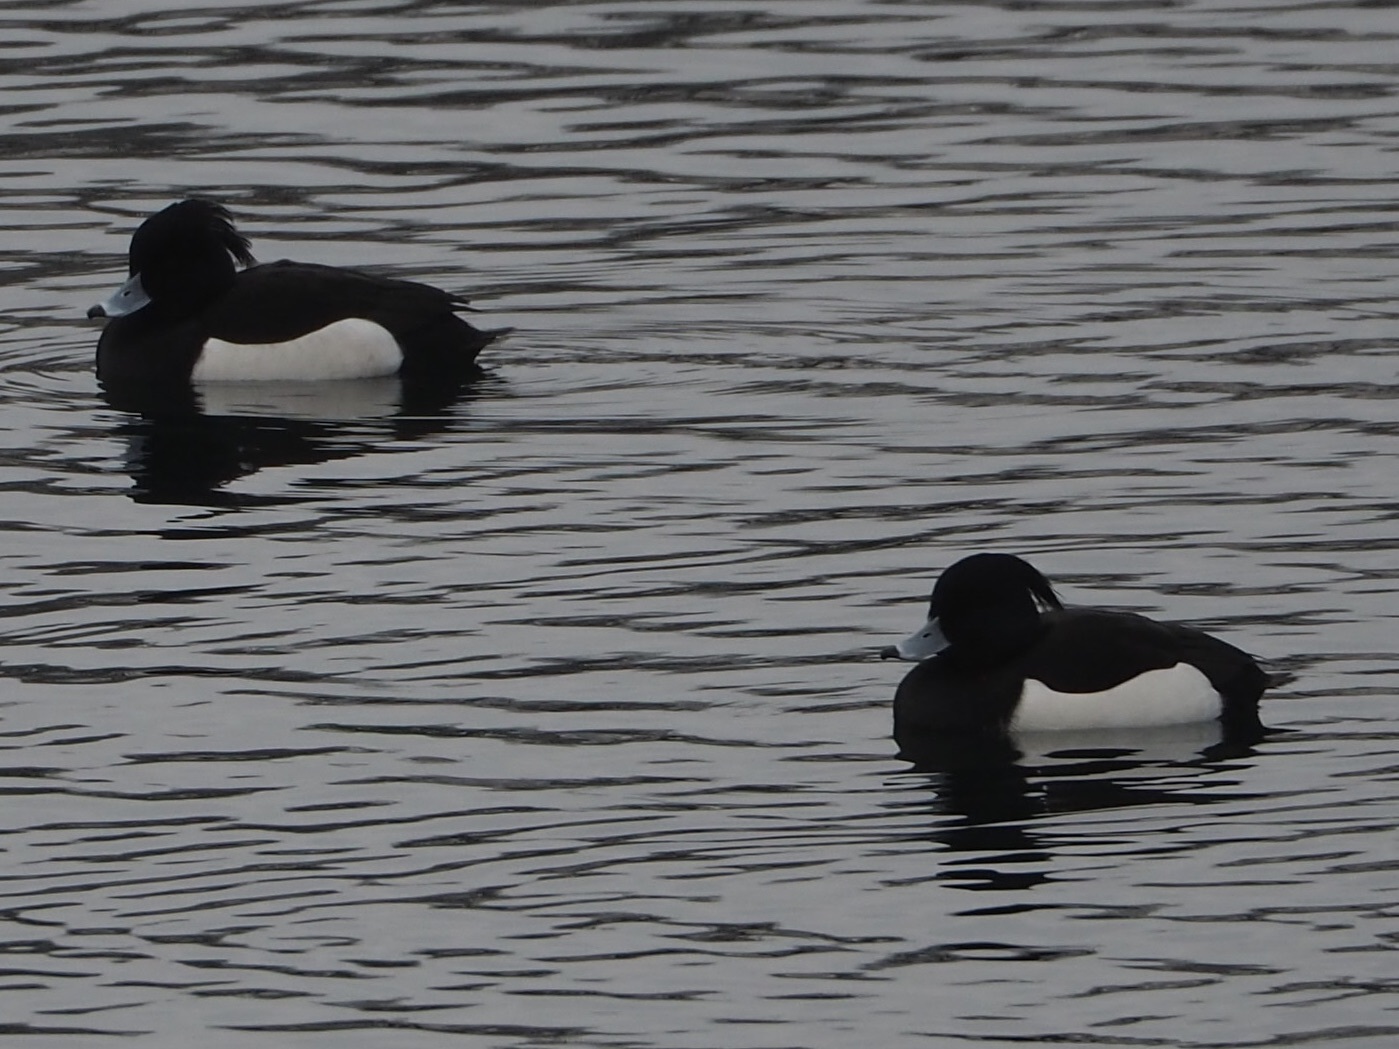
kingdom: Animalia
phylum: Chordata
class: Aves
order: Anseriformes
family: Anatidae
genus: Aythya
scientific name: Aythya fuligula
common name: Tufted duck
